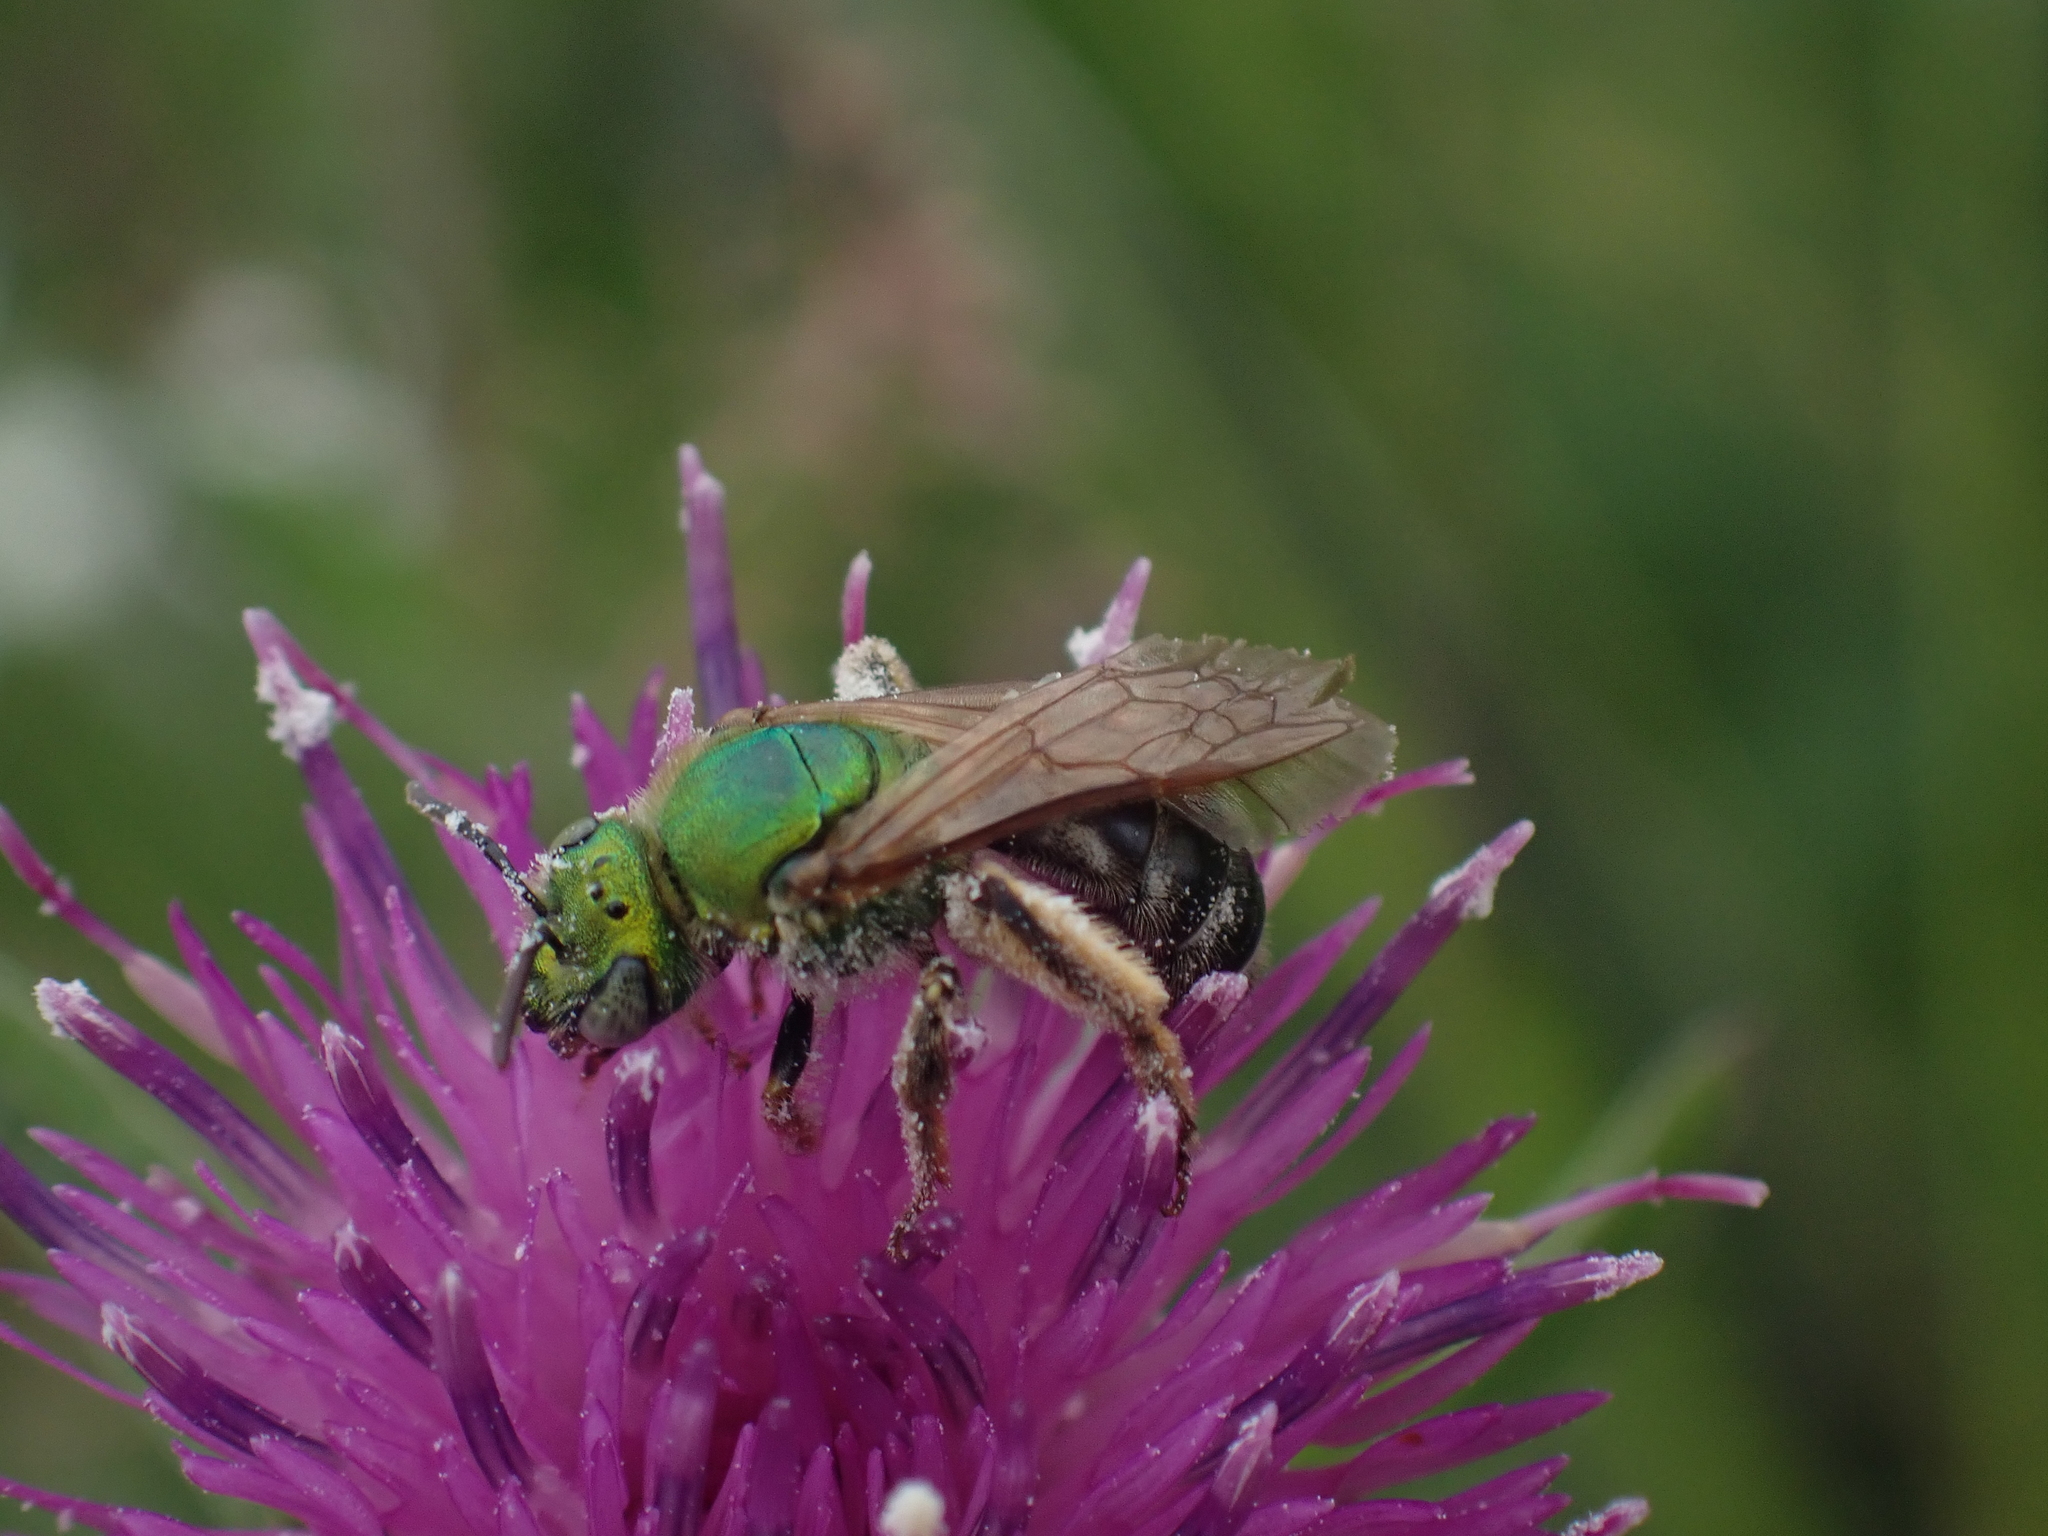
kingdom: Animalia
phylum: Arthropoda
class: Insecta
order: Hymenoptera
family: Halictidae
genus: Agapostemon
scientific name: Agapostemon virescens
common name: Bicolored striped sweat bee
